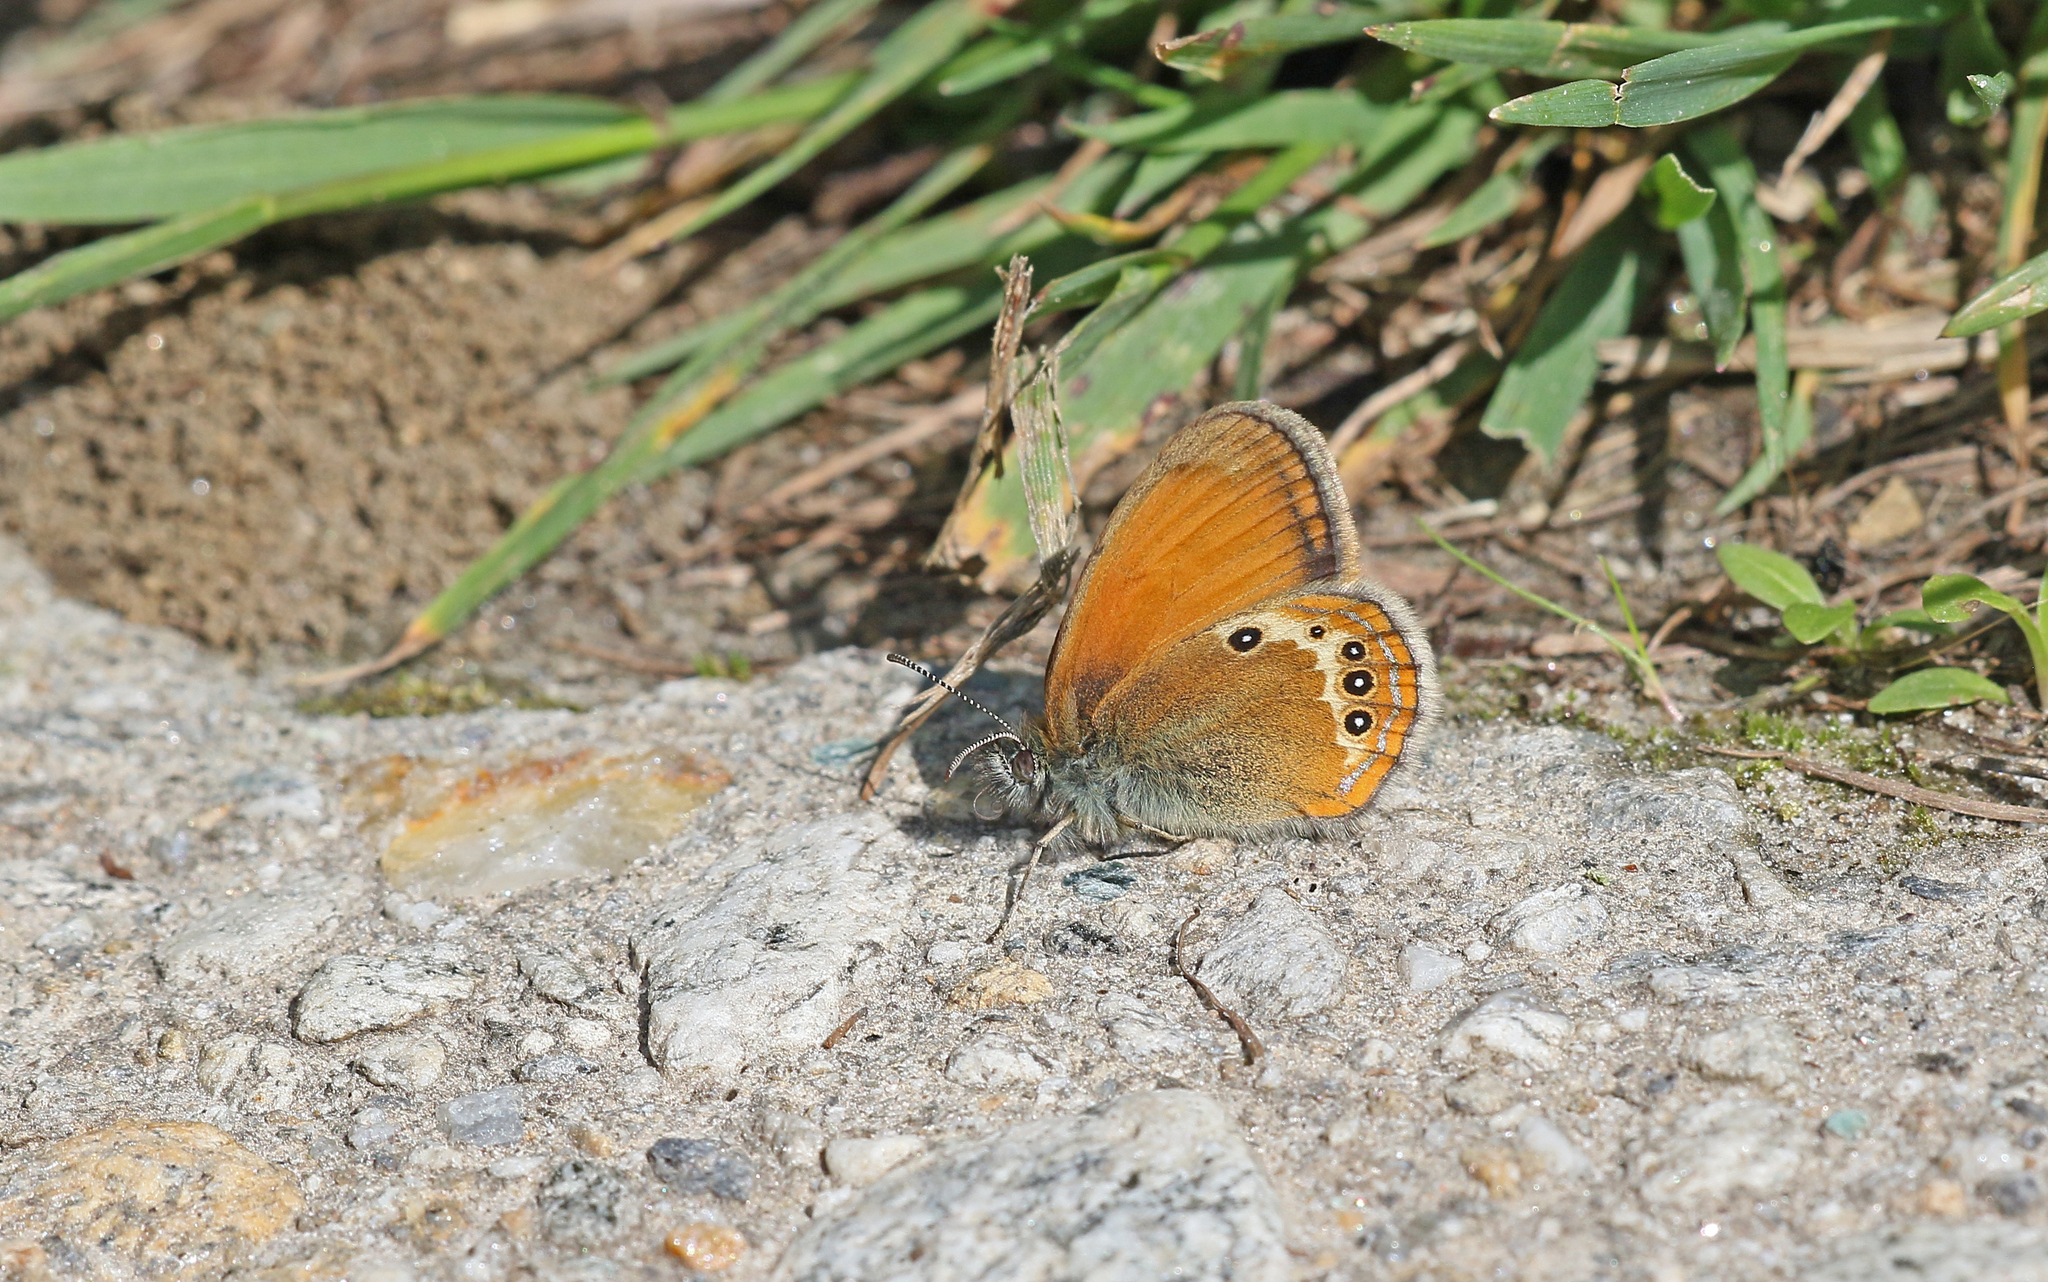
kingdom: Animalia
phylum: Arthropoda
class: Insecta
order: Lepidoptera
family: Nymphalidae
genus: Coenonympha
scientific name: Coenonympha arcania
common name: Pearly heath
